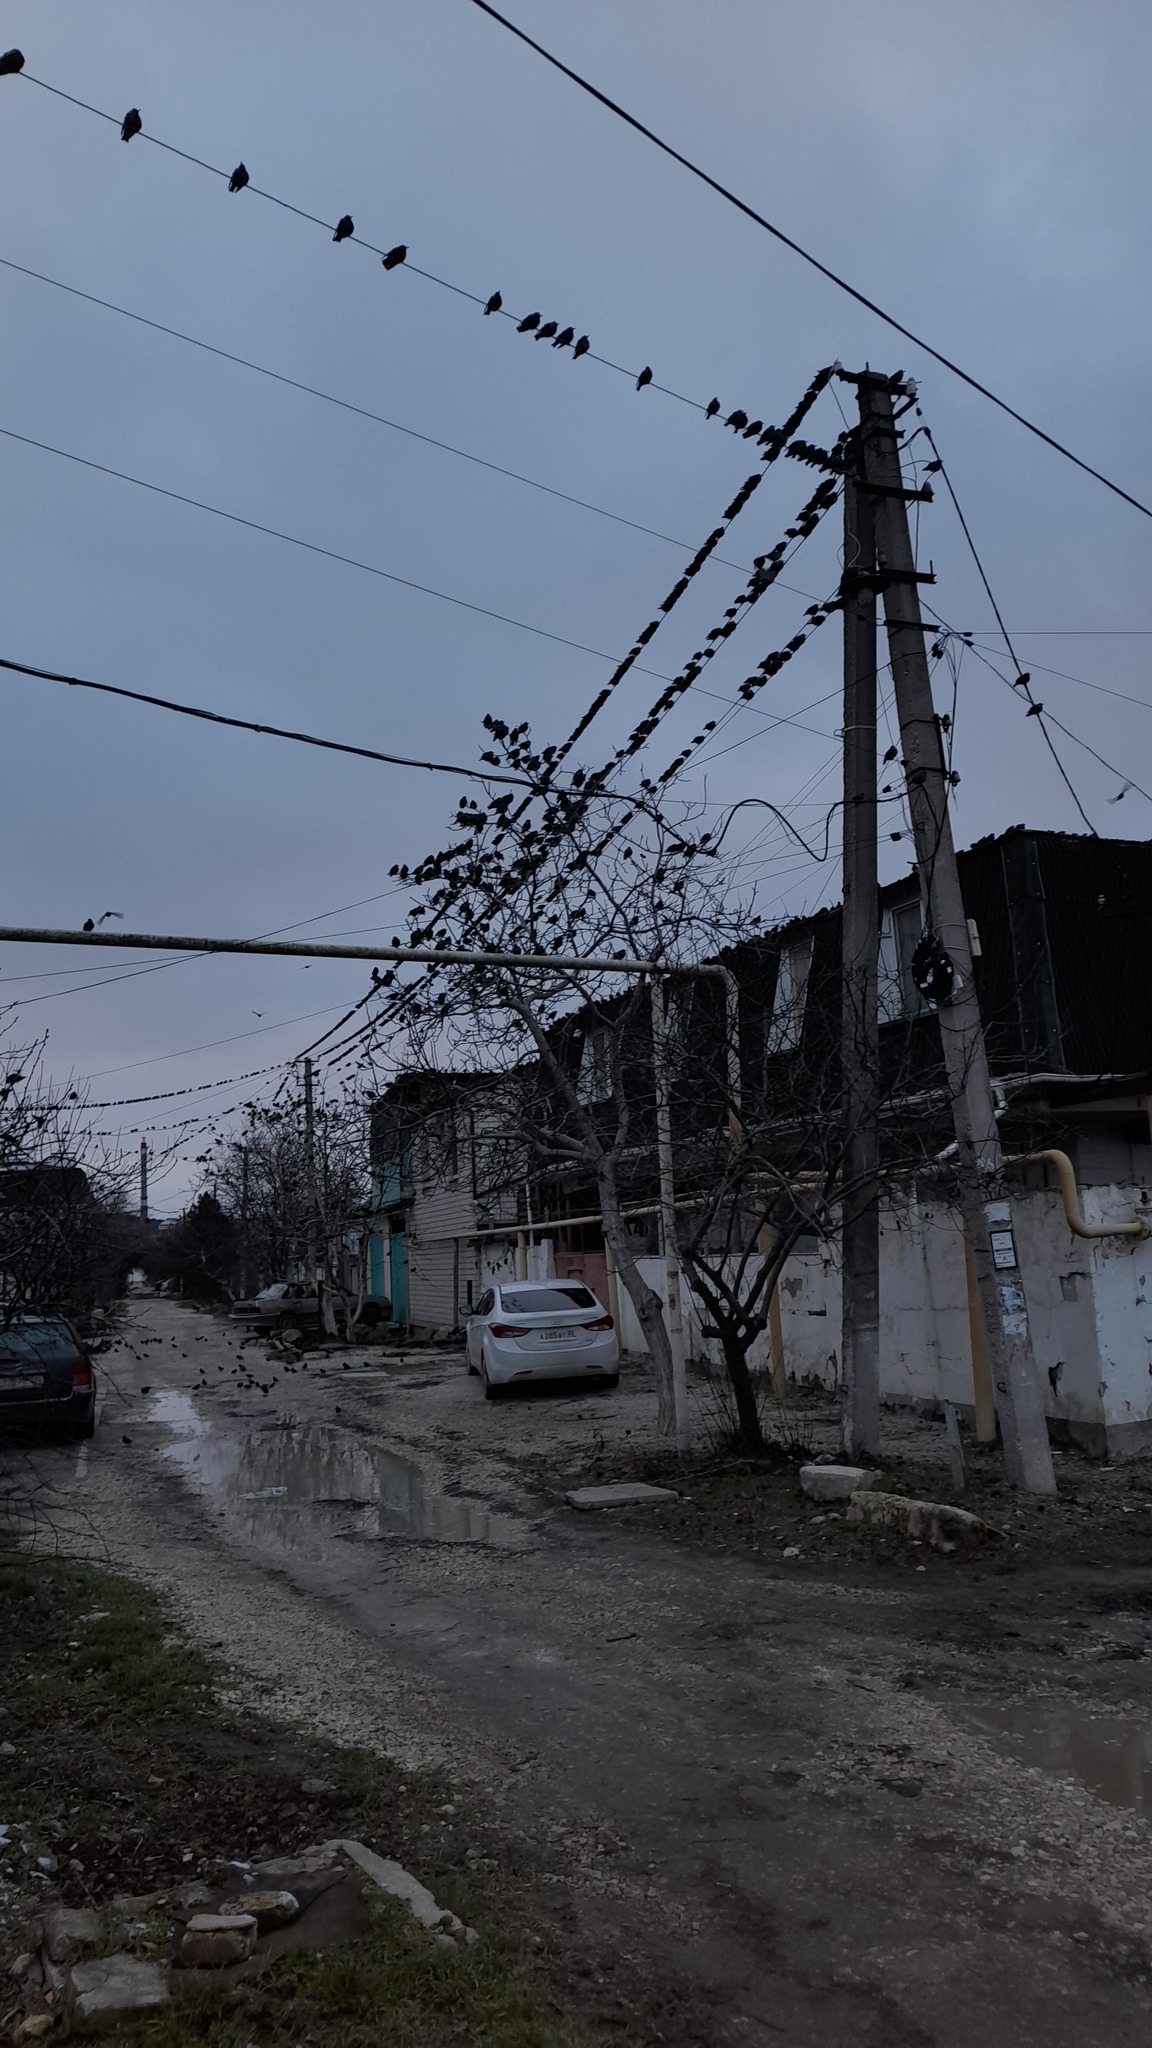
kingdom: Animalia
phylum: Chordata
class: Aves
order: Passeriformes
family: Sturnidae
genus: Sturnus
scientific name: Sturnus vulgaris
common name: Common starling
